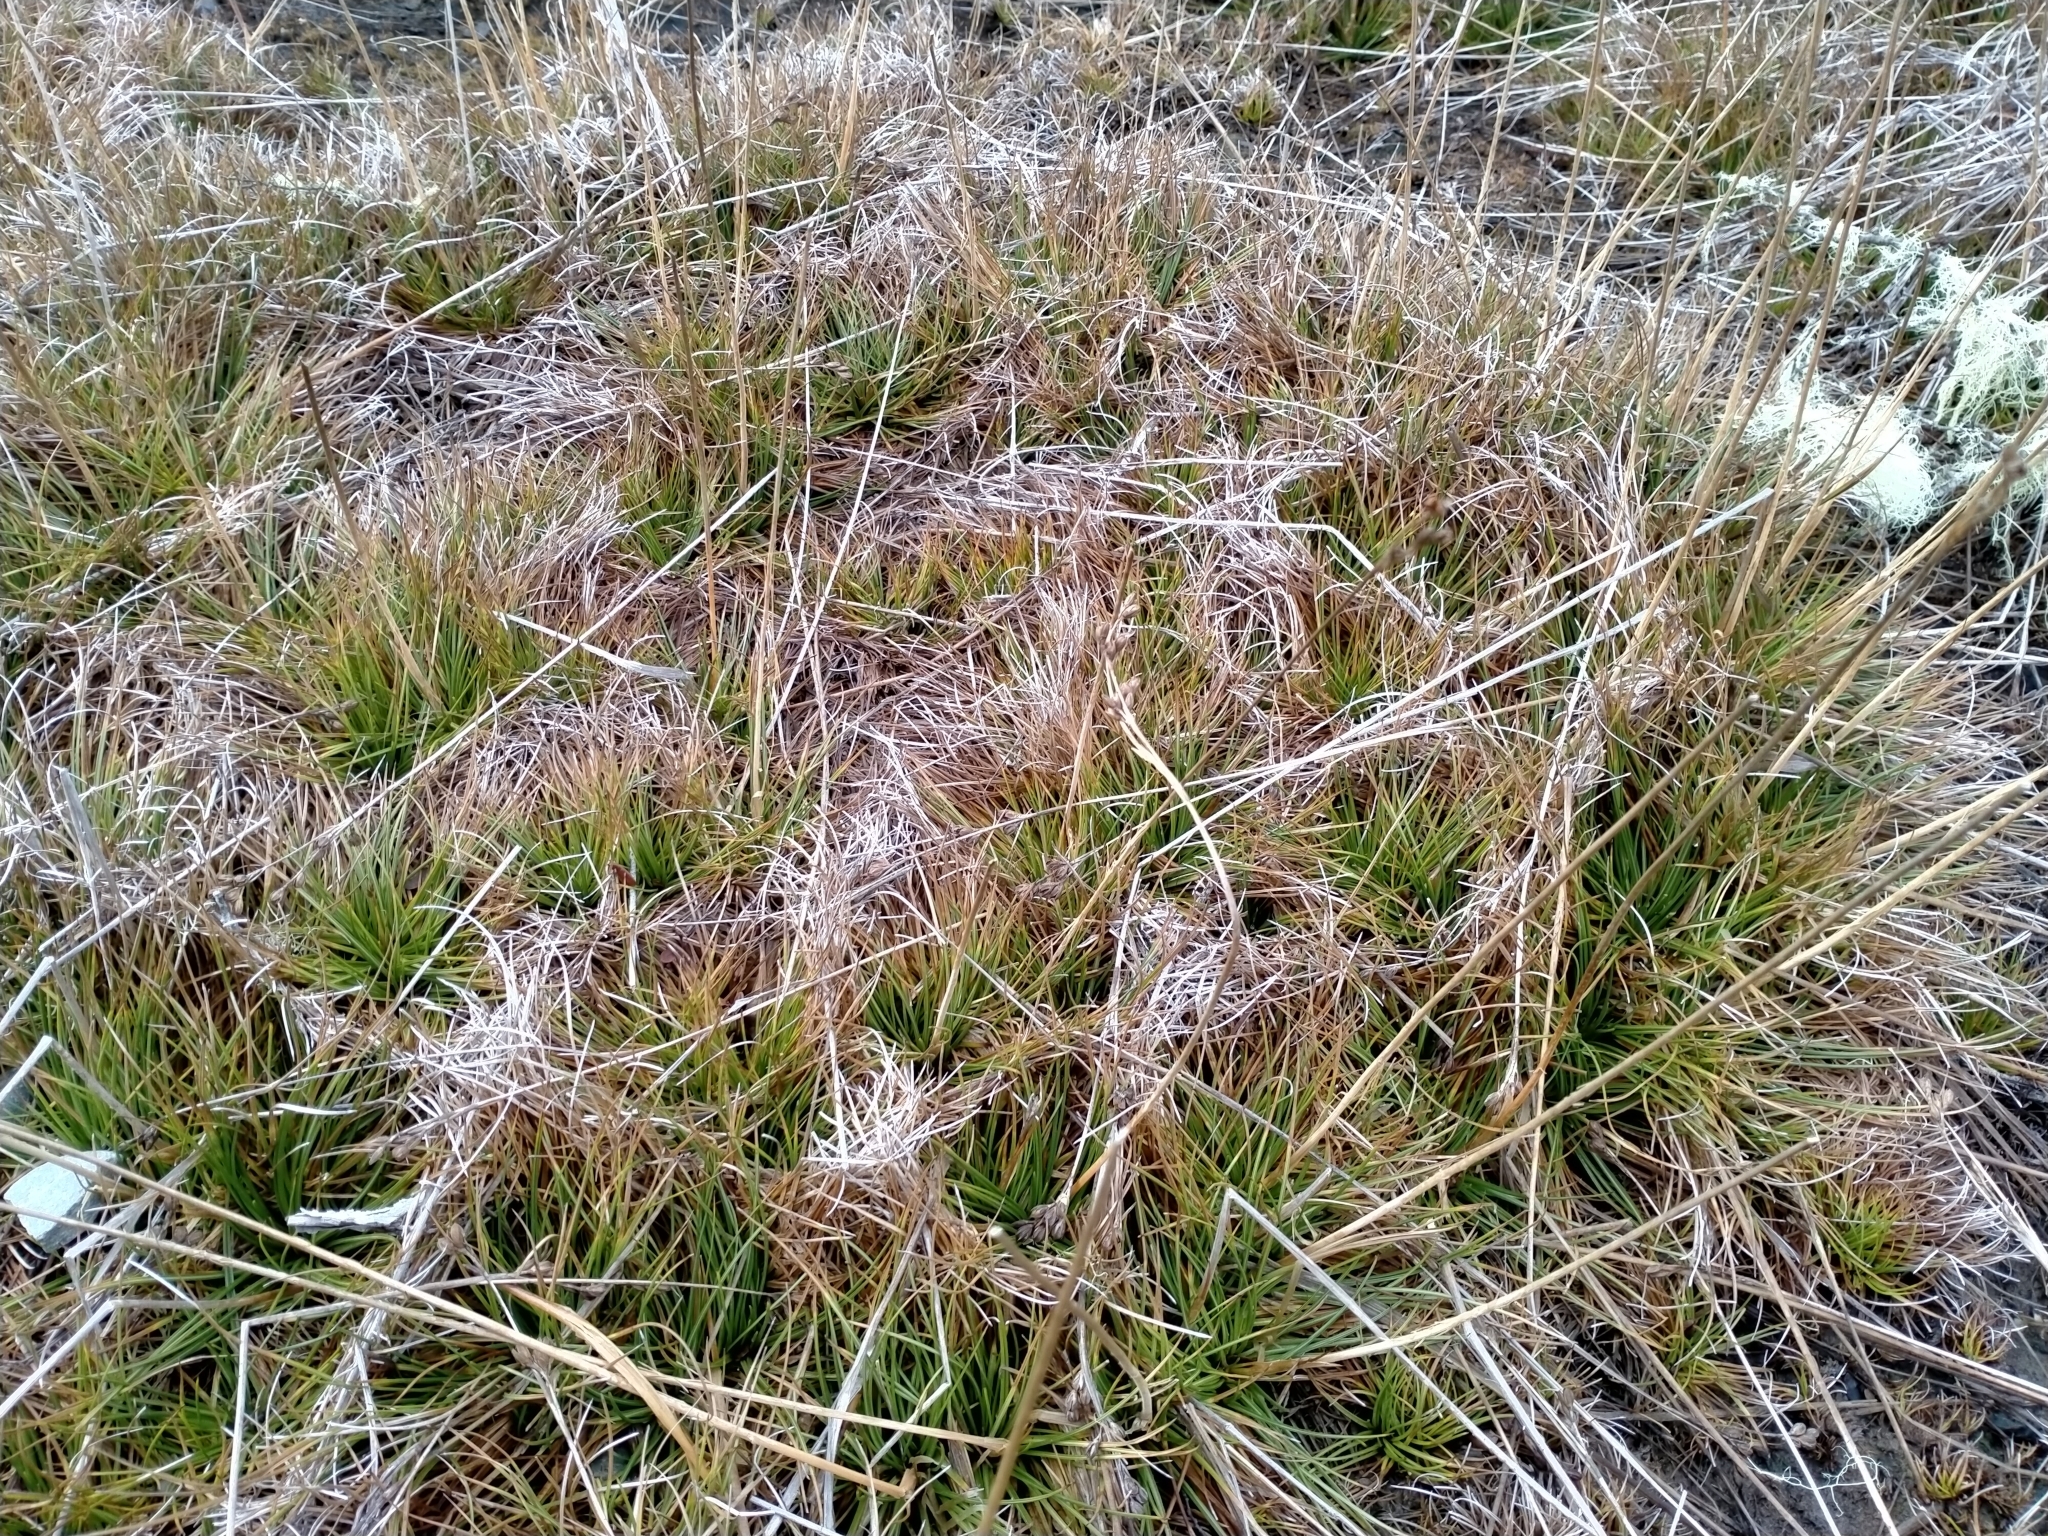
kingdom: Plantae
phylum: Tracheophyta
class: Liliopsida
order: Poales
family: Juncaceae
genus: Juncus
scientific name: Juncus squarrosus
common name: Heath rush
